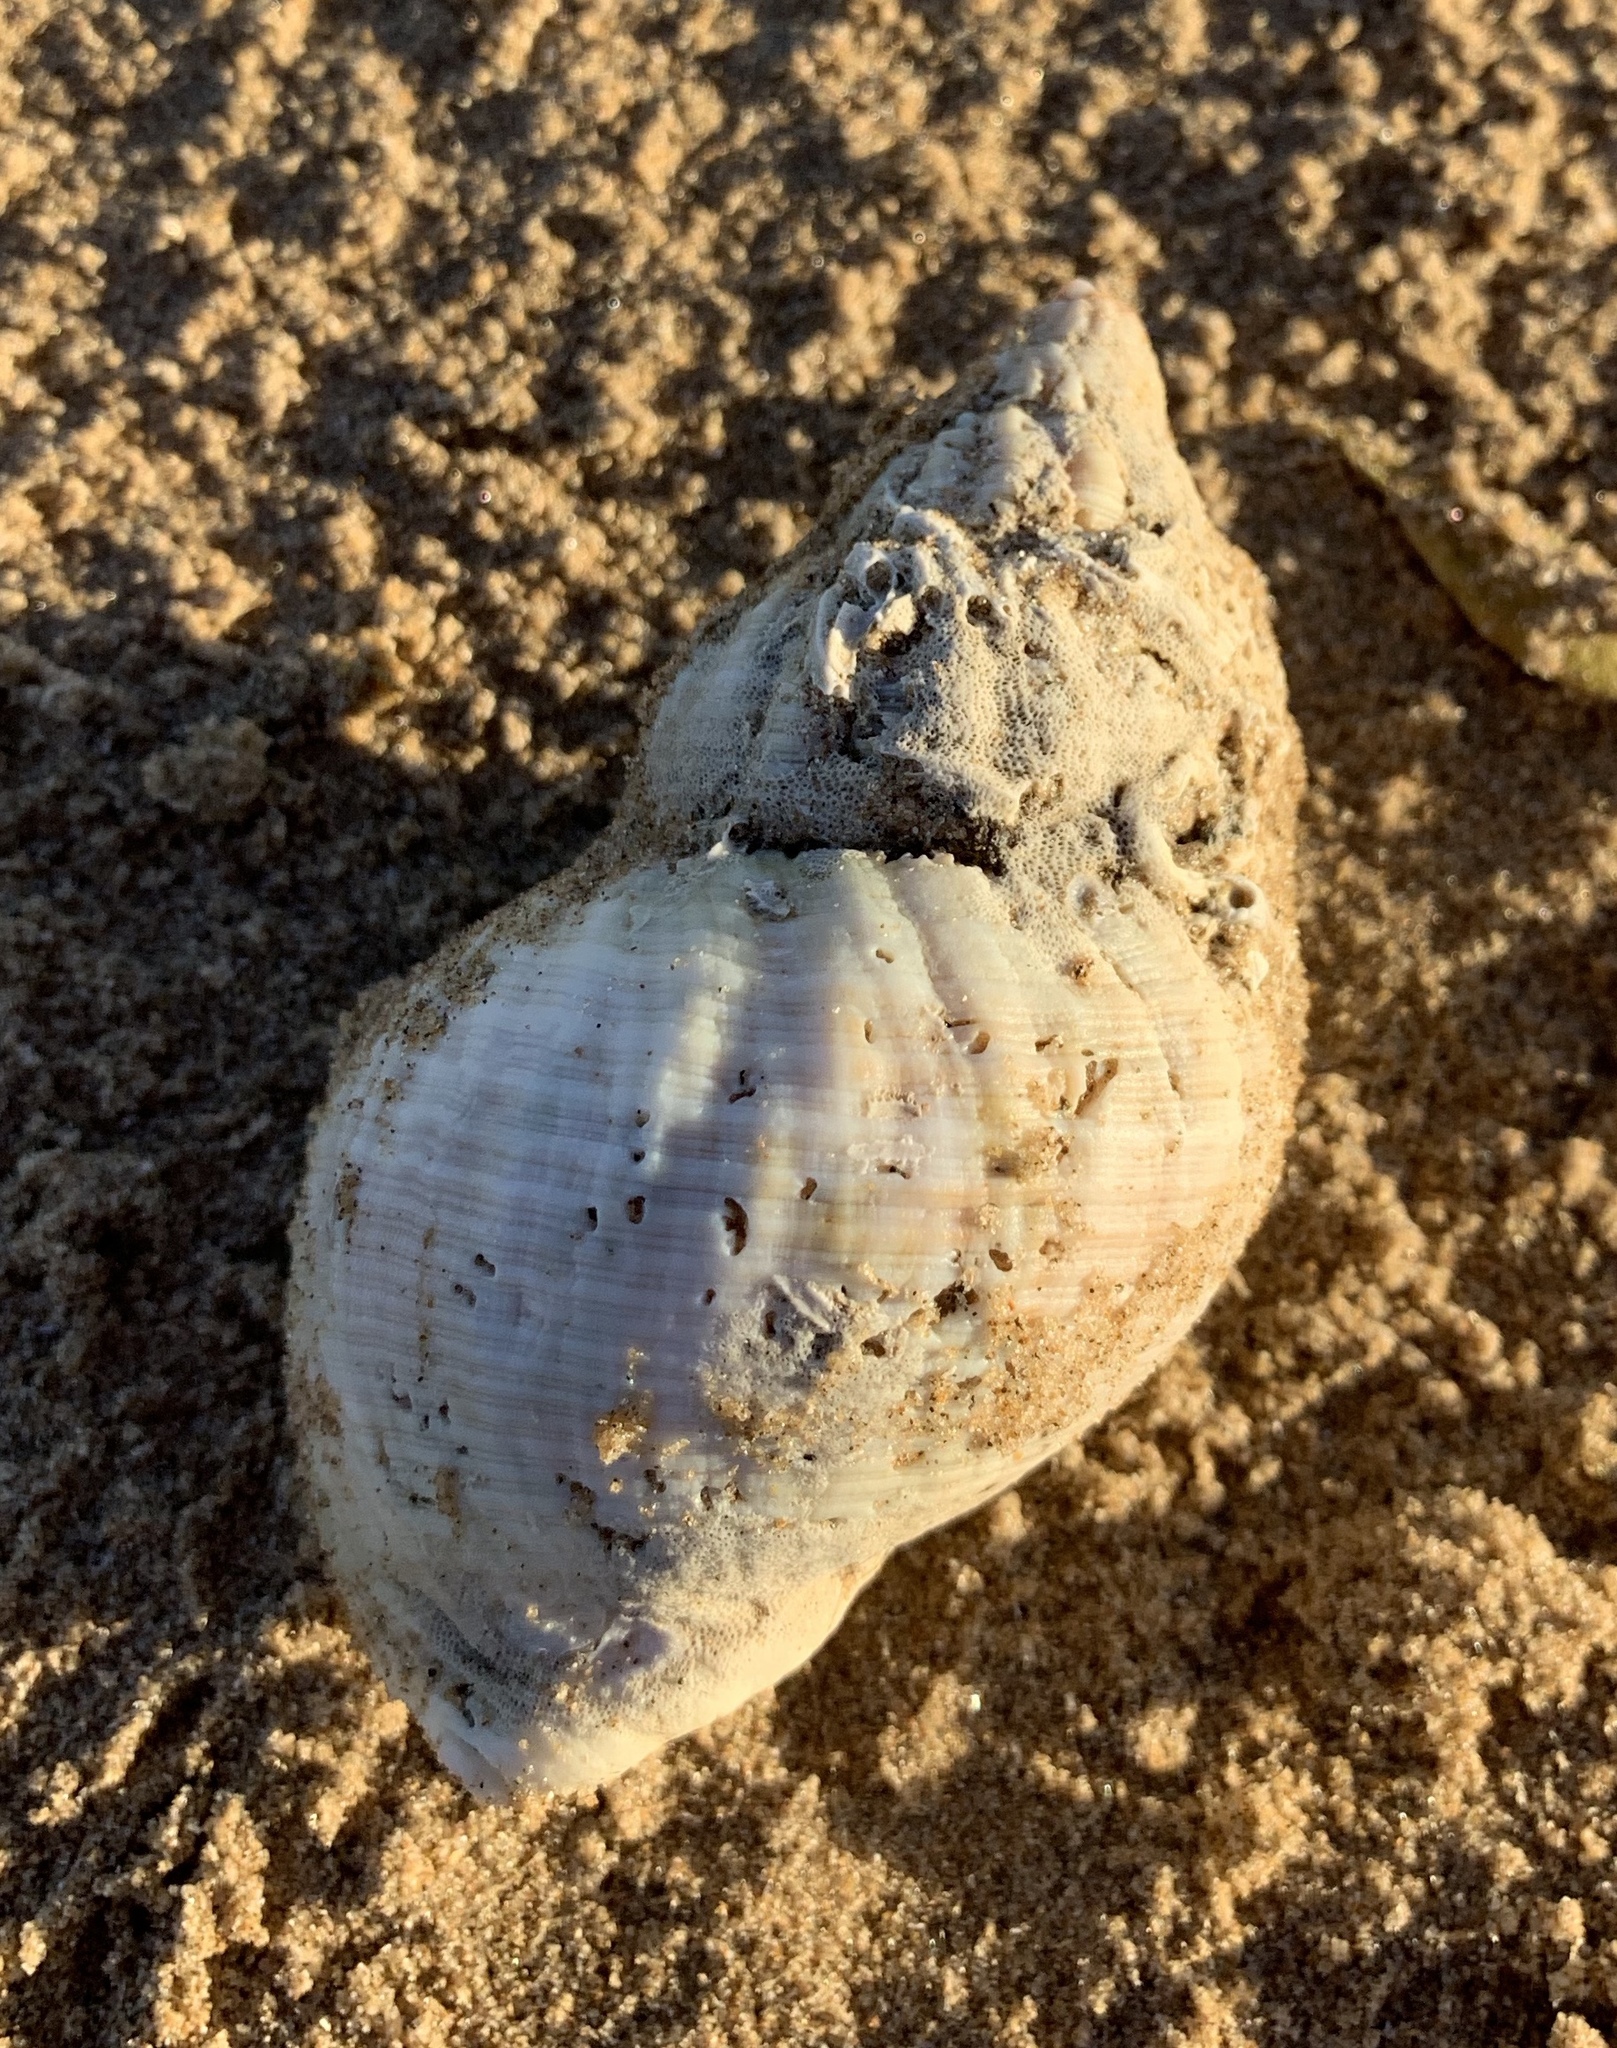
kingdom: Animalia
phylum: Mollusca
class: Gastropoda
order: Neogastropoda
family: Buccinidae
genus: Buccinum
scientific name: Buccinum undatum
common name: Common whelk
